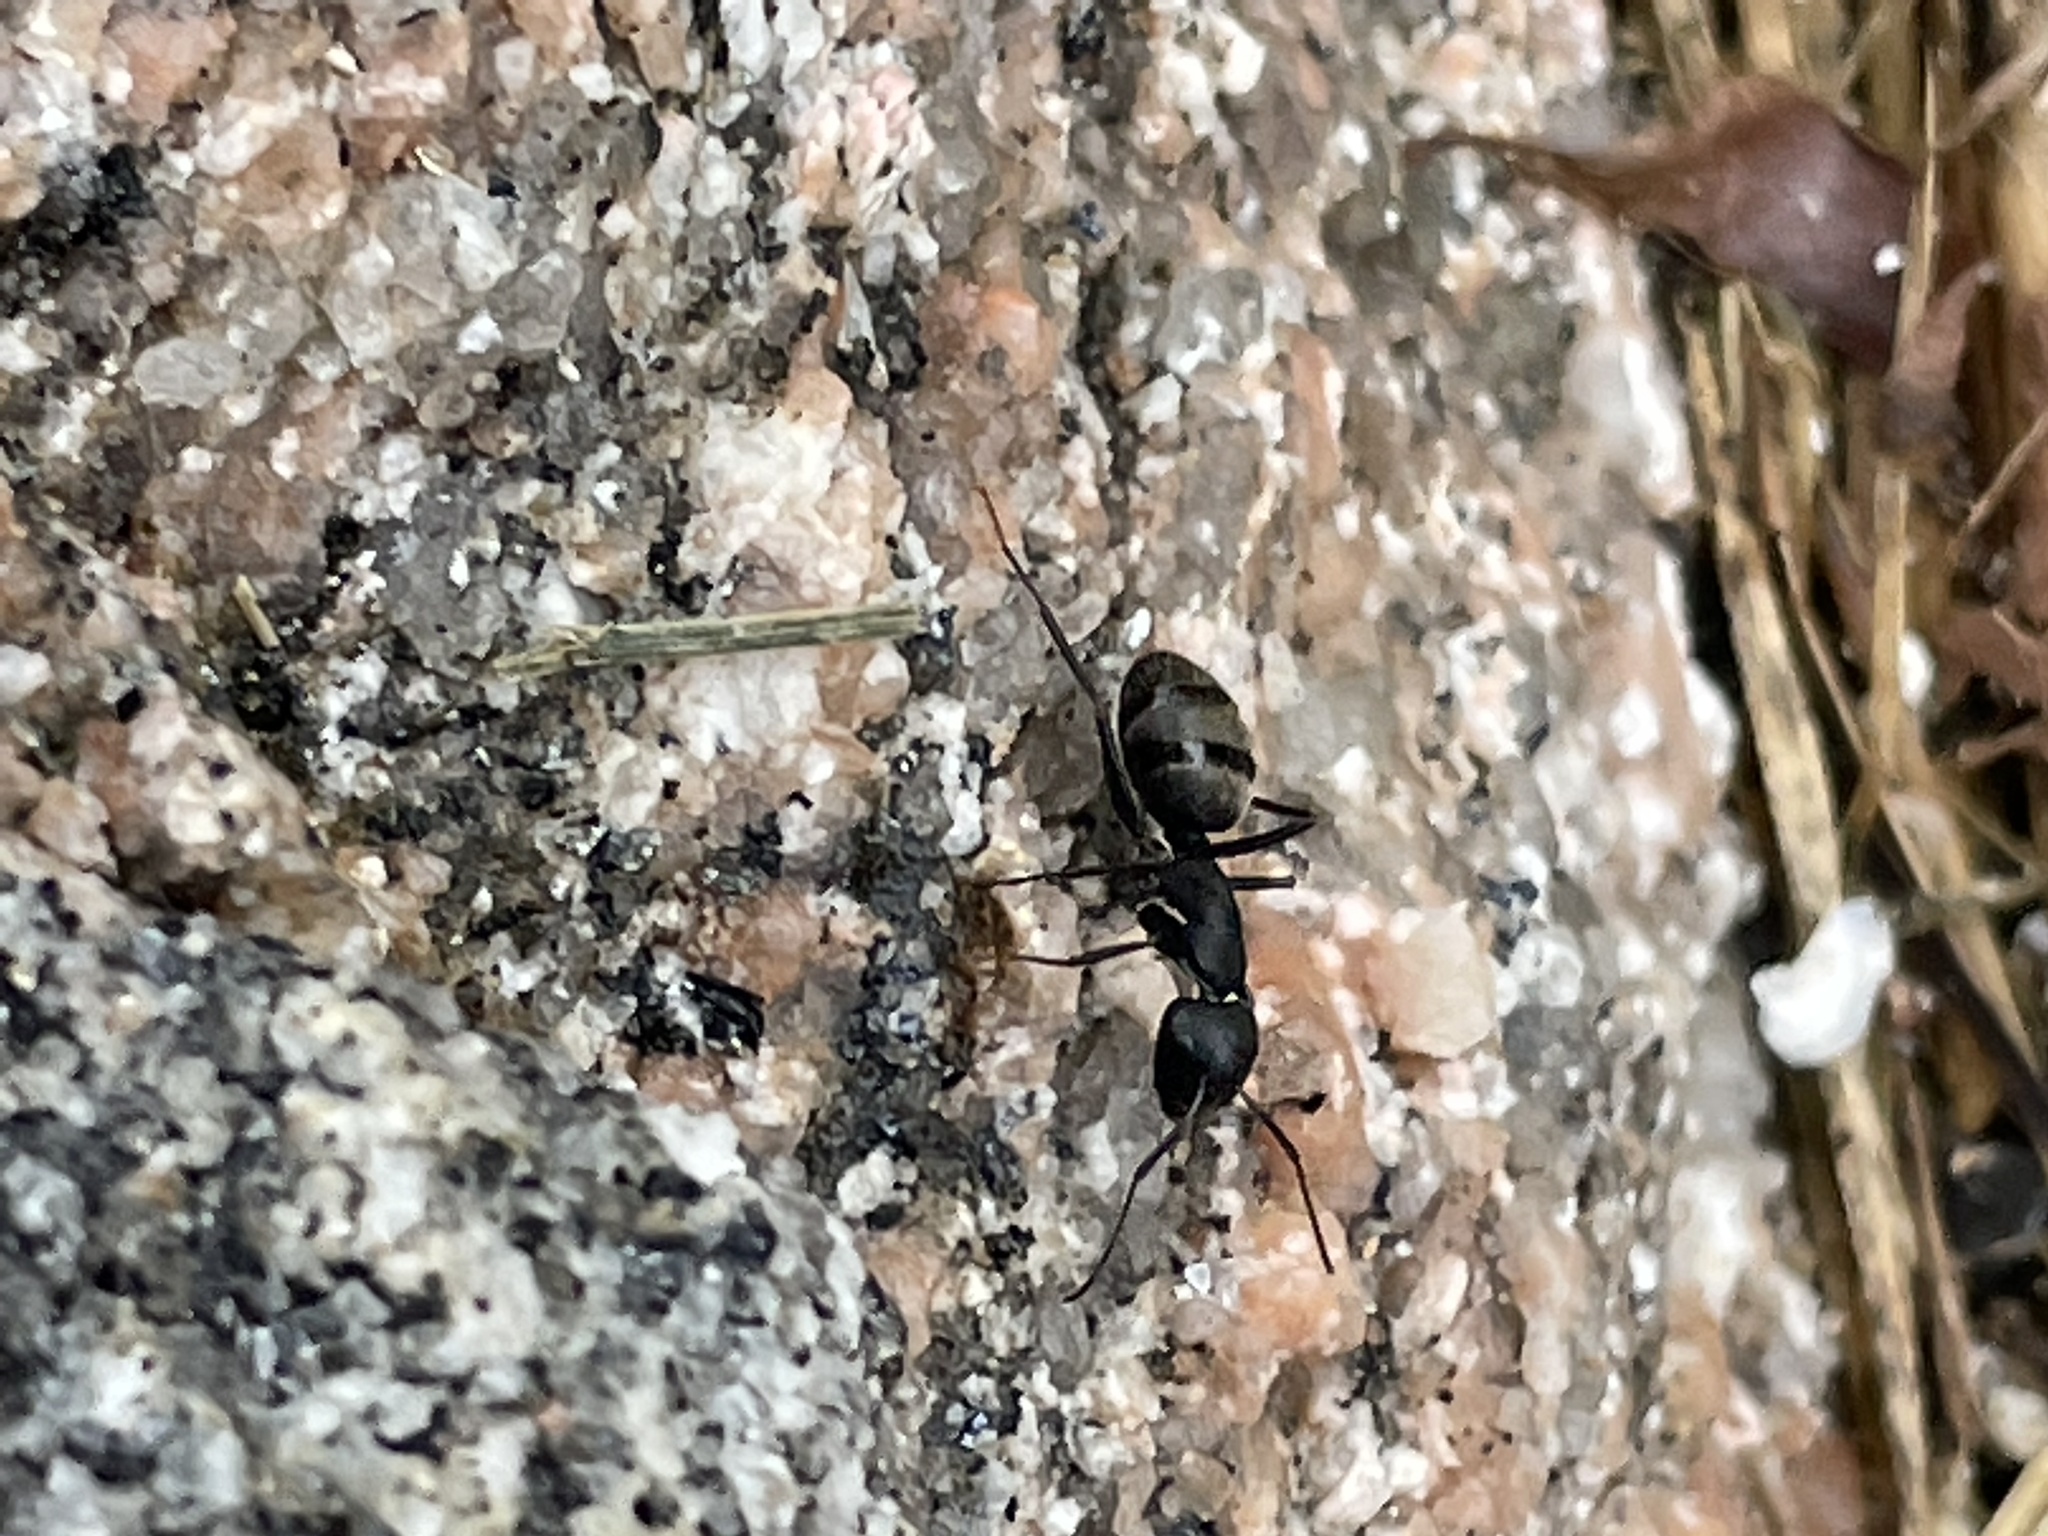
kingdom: Animalia
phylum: Arthropoda
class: Insecta
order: Hymenoptera
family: Formicidae
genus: Camponotus
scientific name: Camponotus pennsylvanicus
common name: Black carpenter ant
